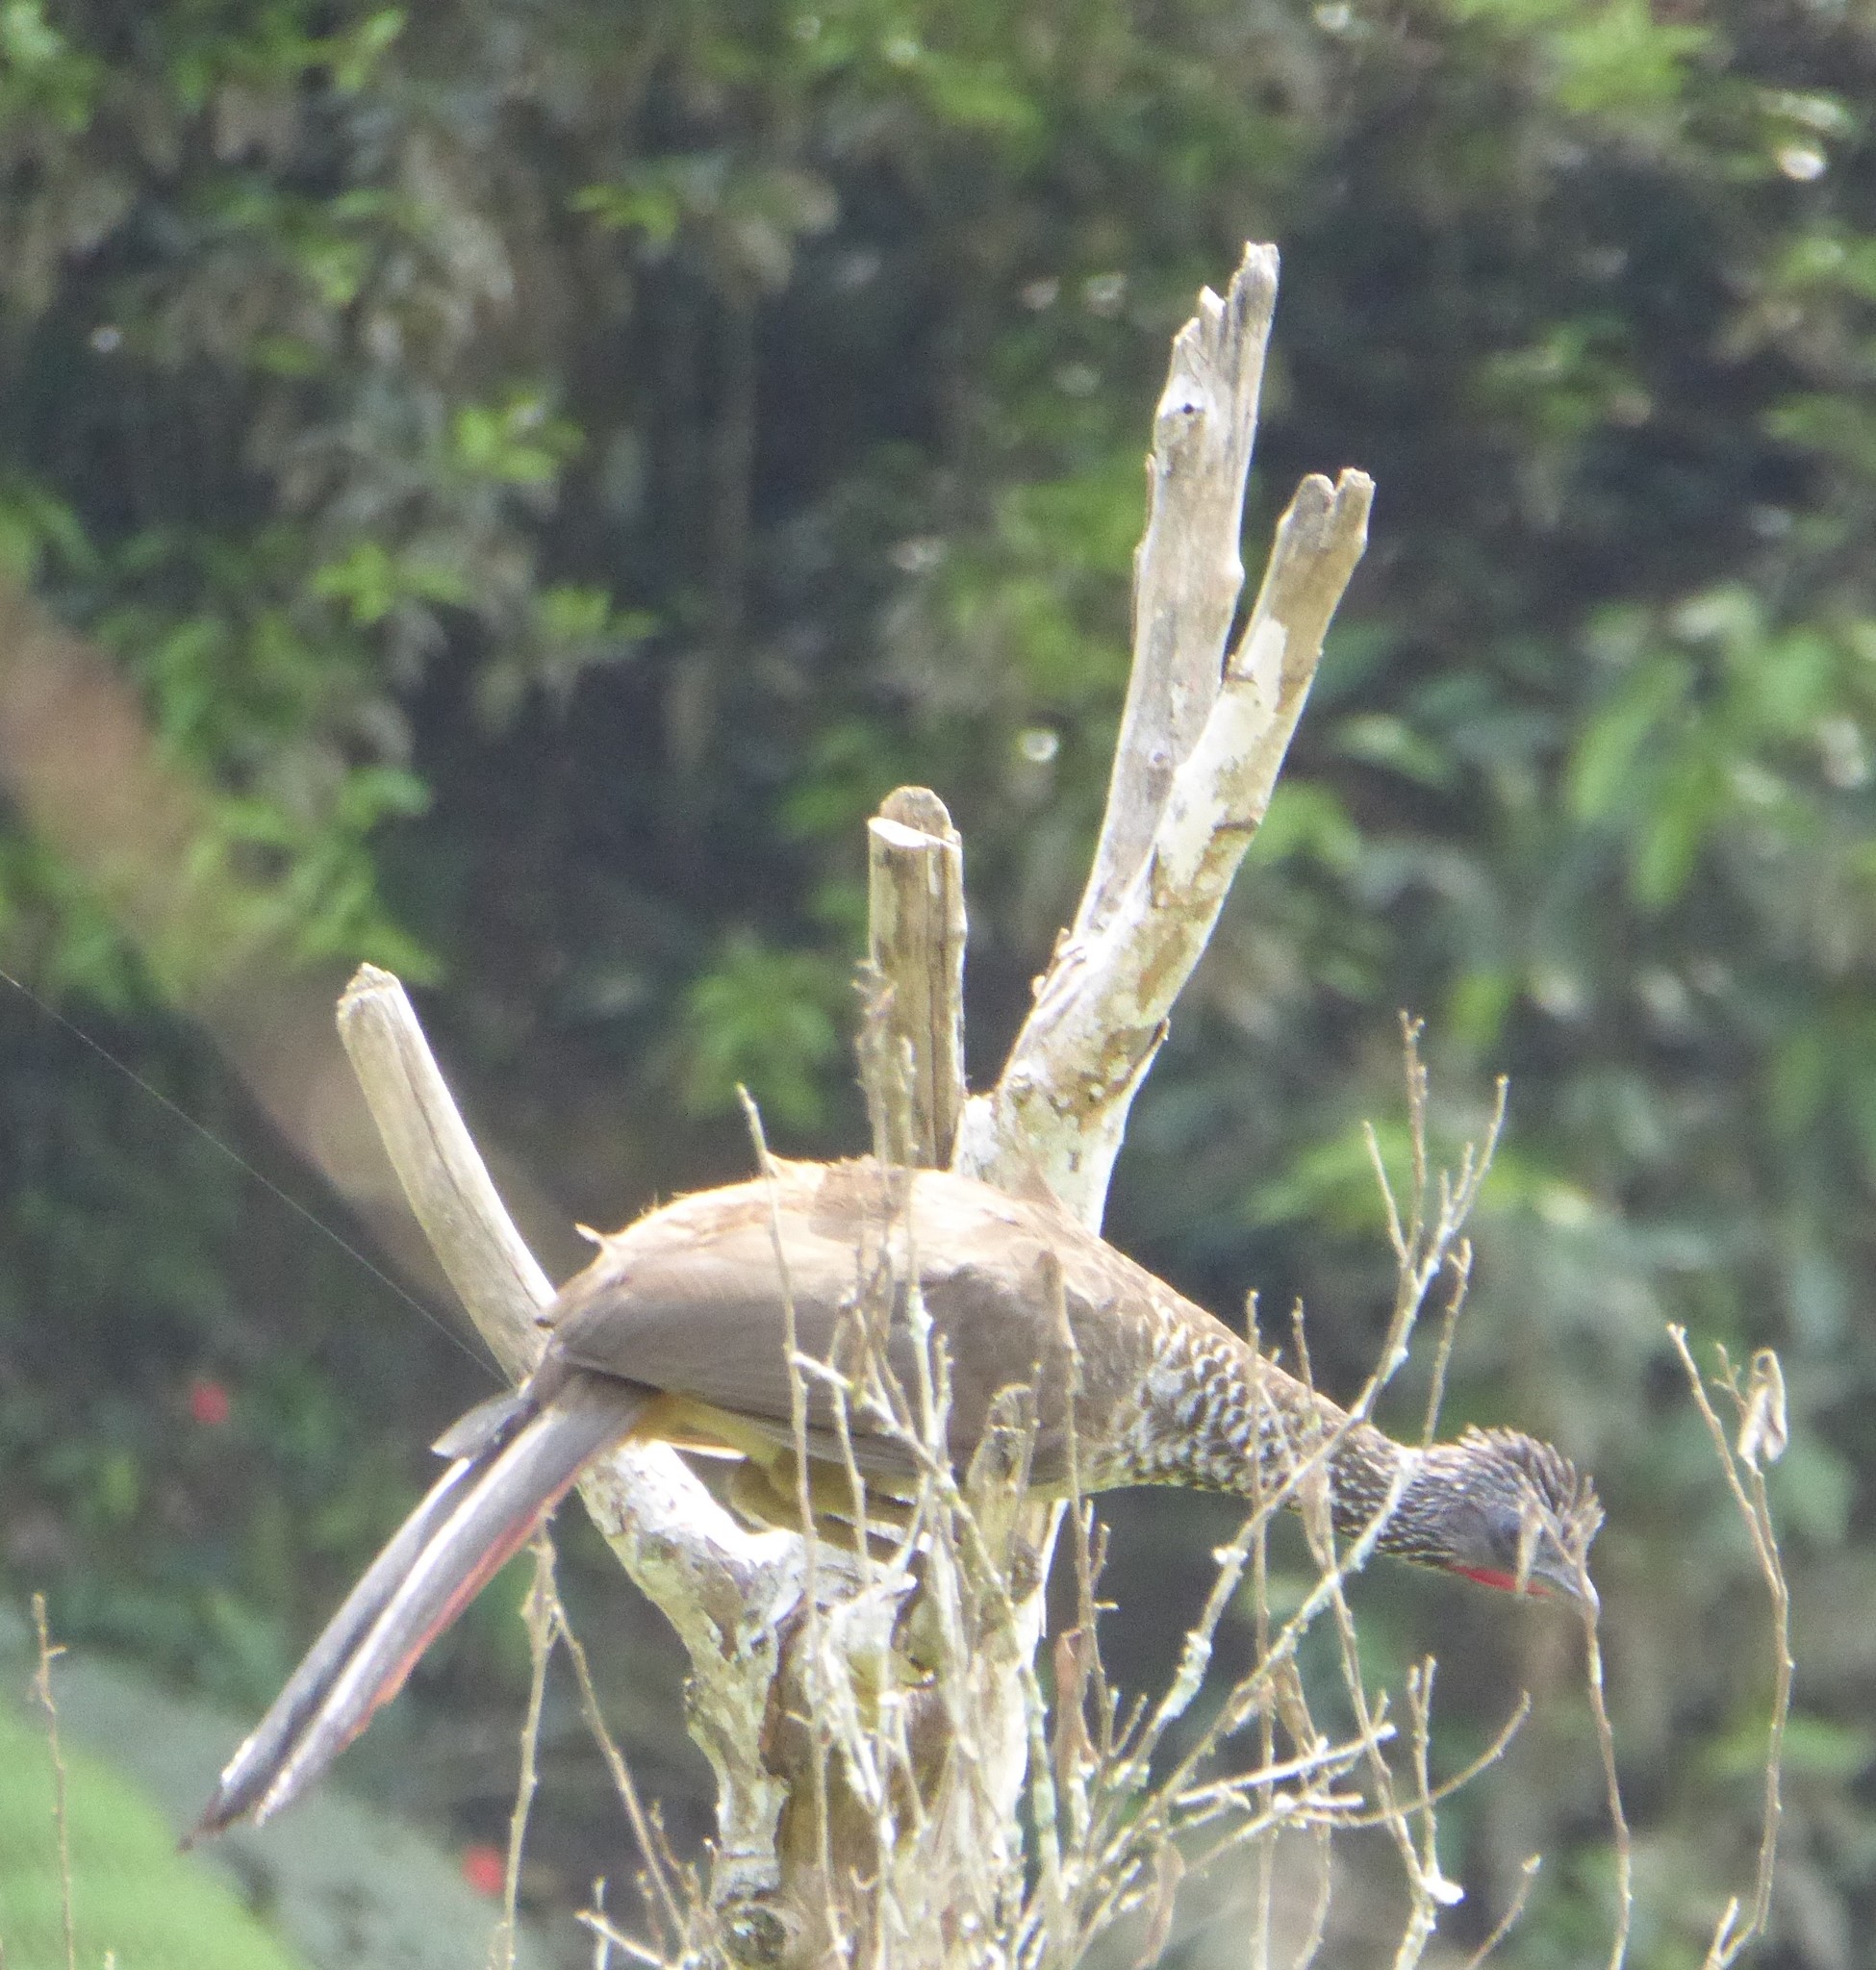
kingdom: Animalia
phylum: Chordata
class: Aves
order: Galliformes
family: Cracidae
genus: Ortalis
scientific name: Ortalis guttata
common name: Speckled chachalaca
